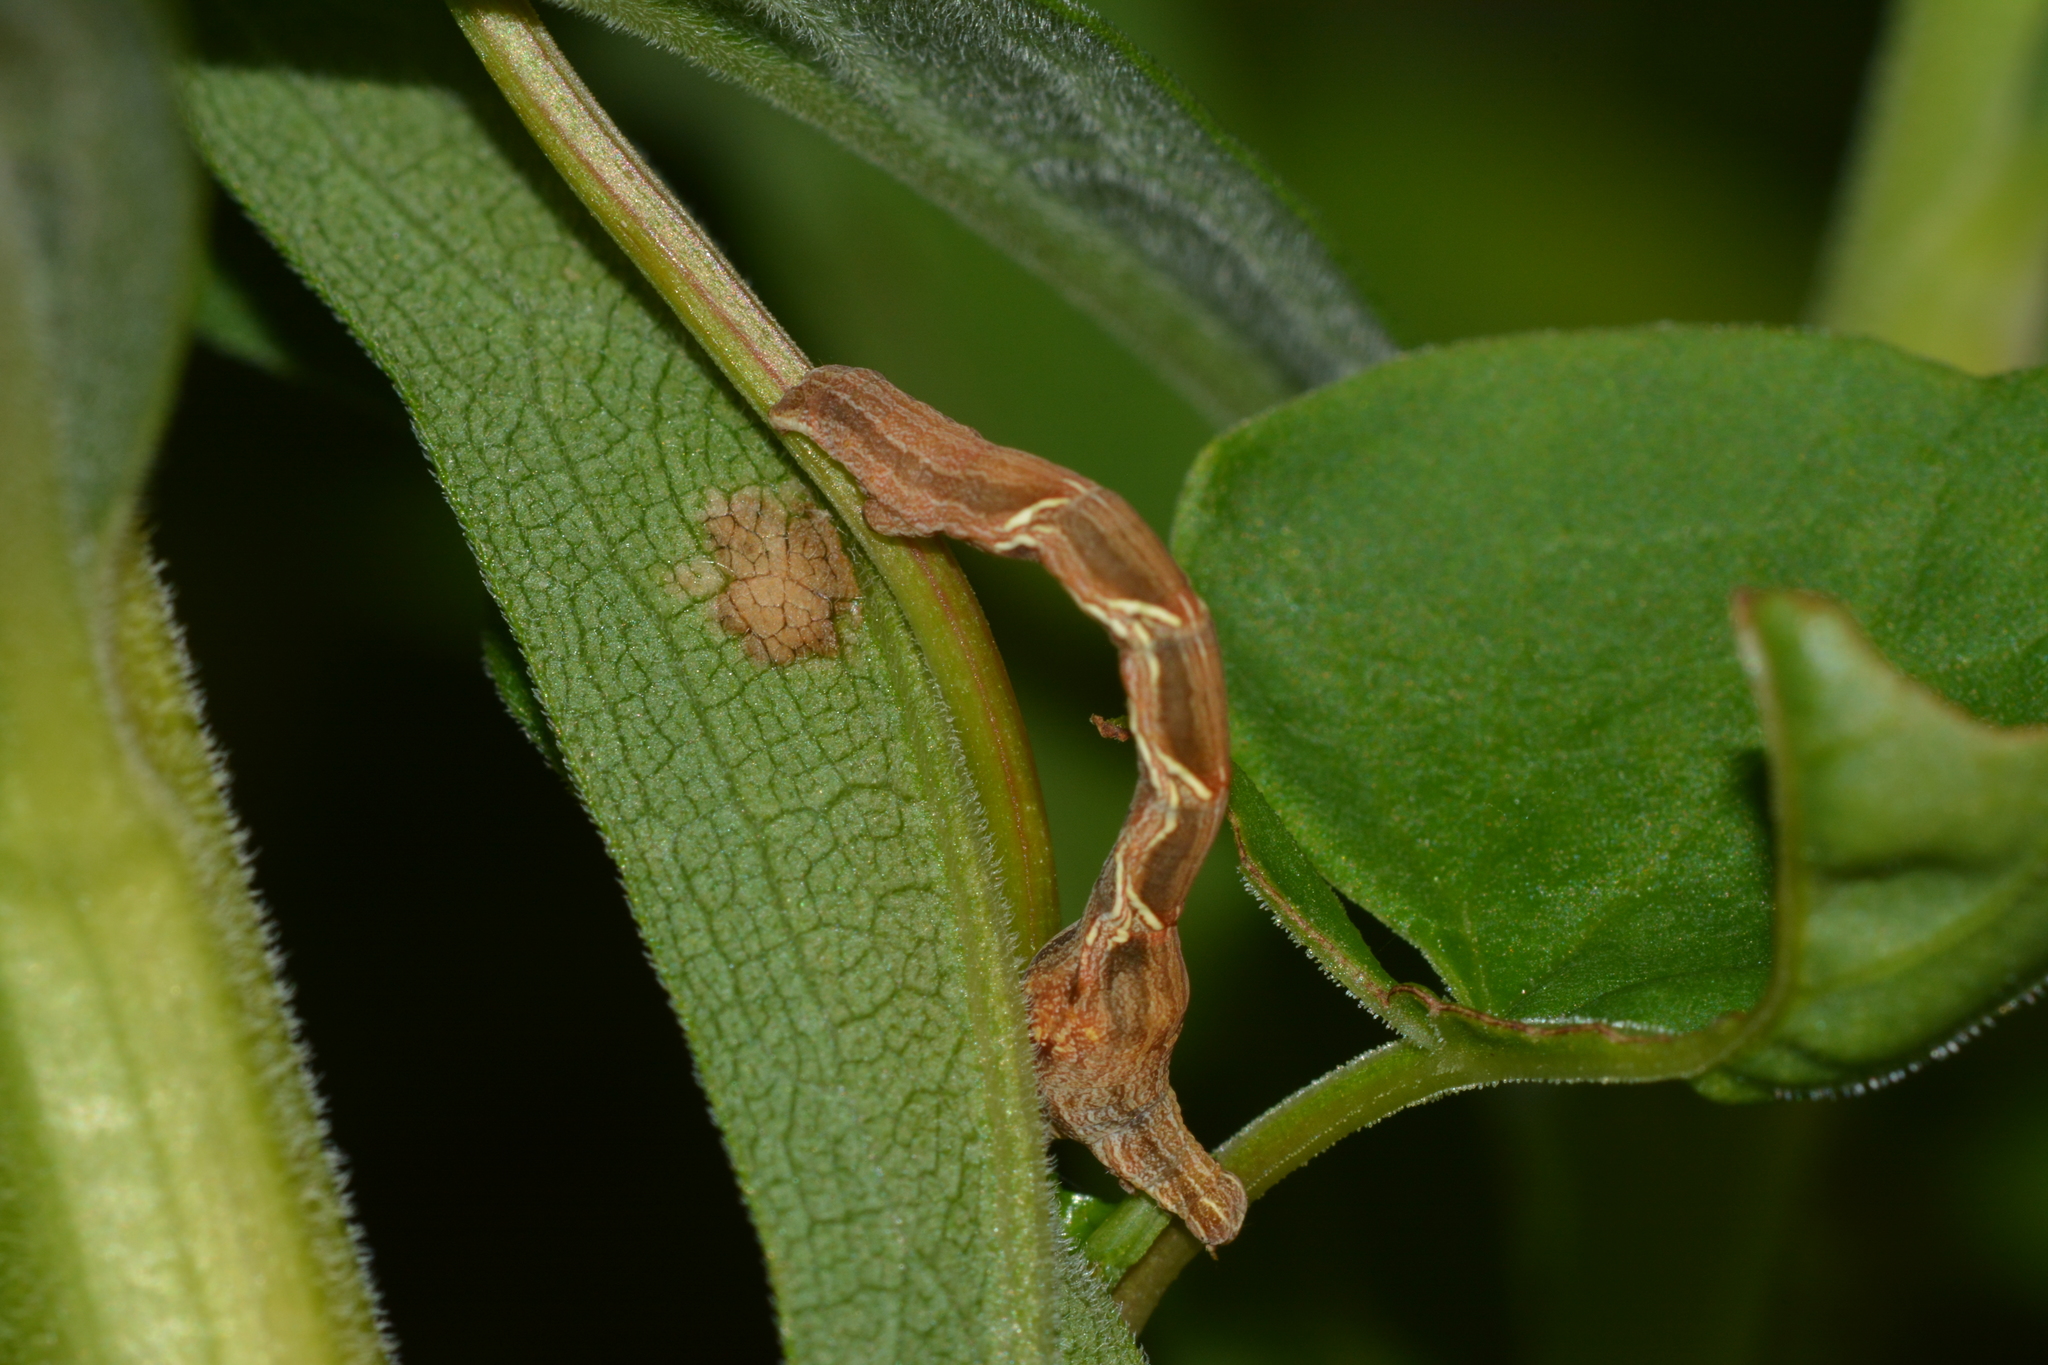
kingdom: Animalia
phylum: Arthropoda
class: Insecta
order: Lepidoptera
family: Geometridae
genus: Timandra
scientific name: Timandra amaturaria
